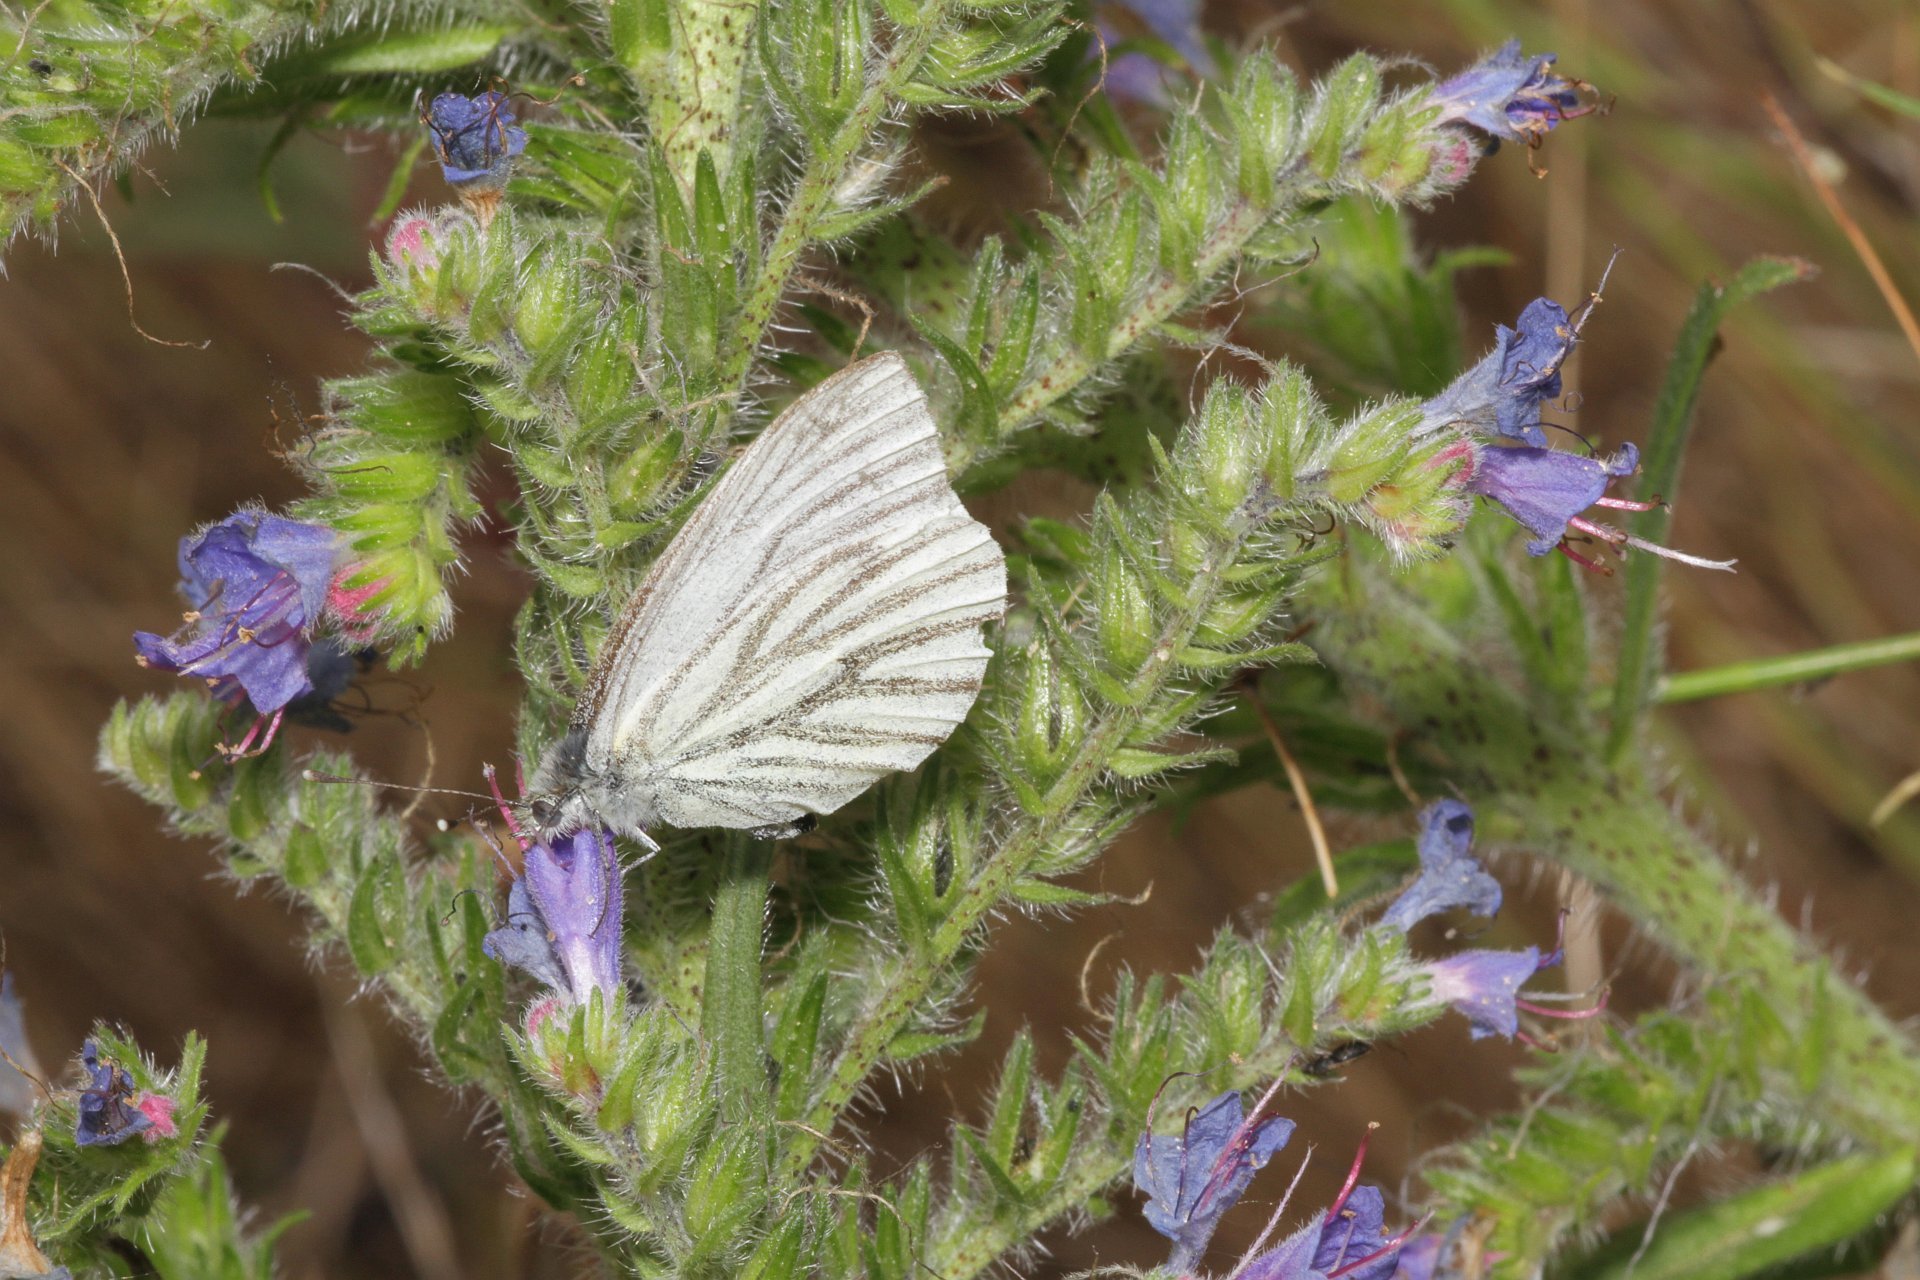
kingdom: Animalia
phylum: Arthropoda
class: Insecta
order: Lepidoptera
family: Pieridae
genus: Pieris
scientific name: Pieris napi
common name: Green-veined white
